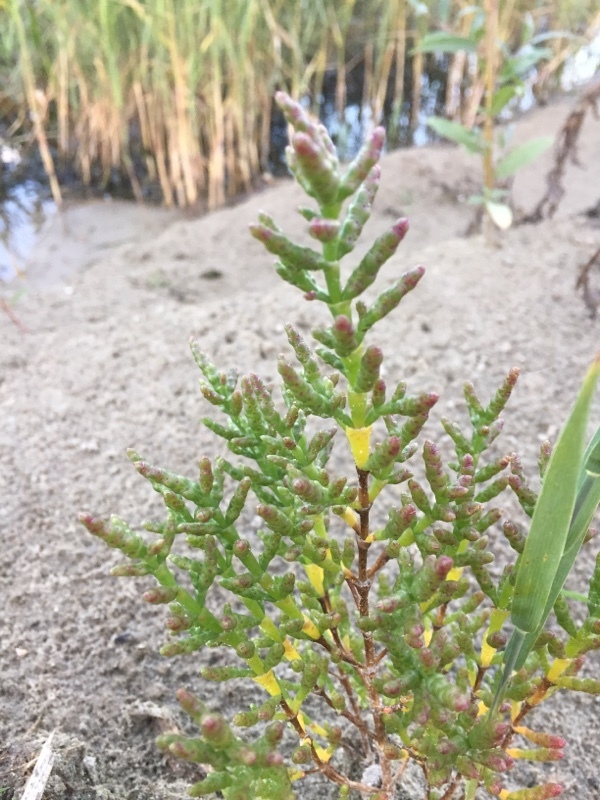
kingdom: Plantae
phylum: Tracheophyta
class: Magnoliopsida
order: Caryophyllales
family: Amaranthaceae
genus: Salicornia
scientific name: Salicornia europaea
